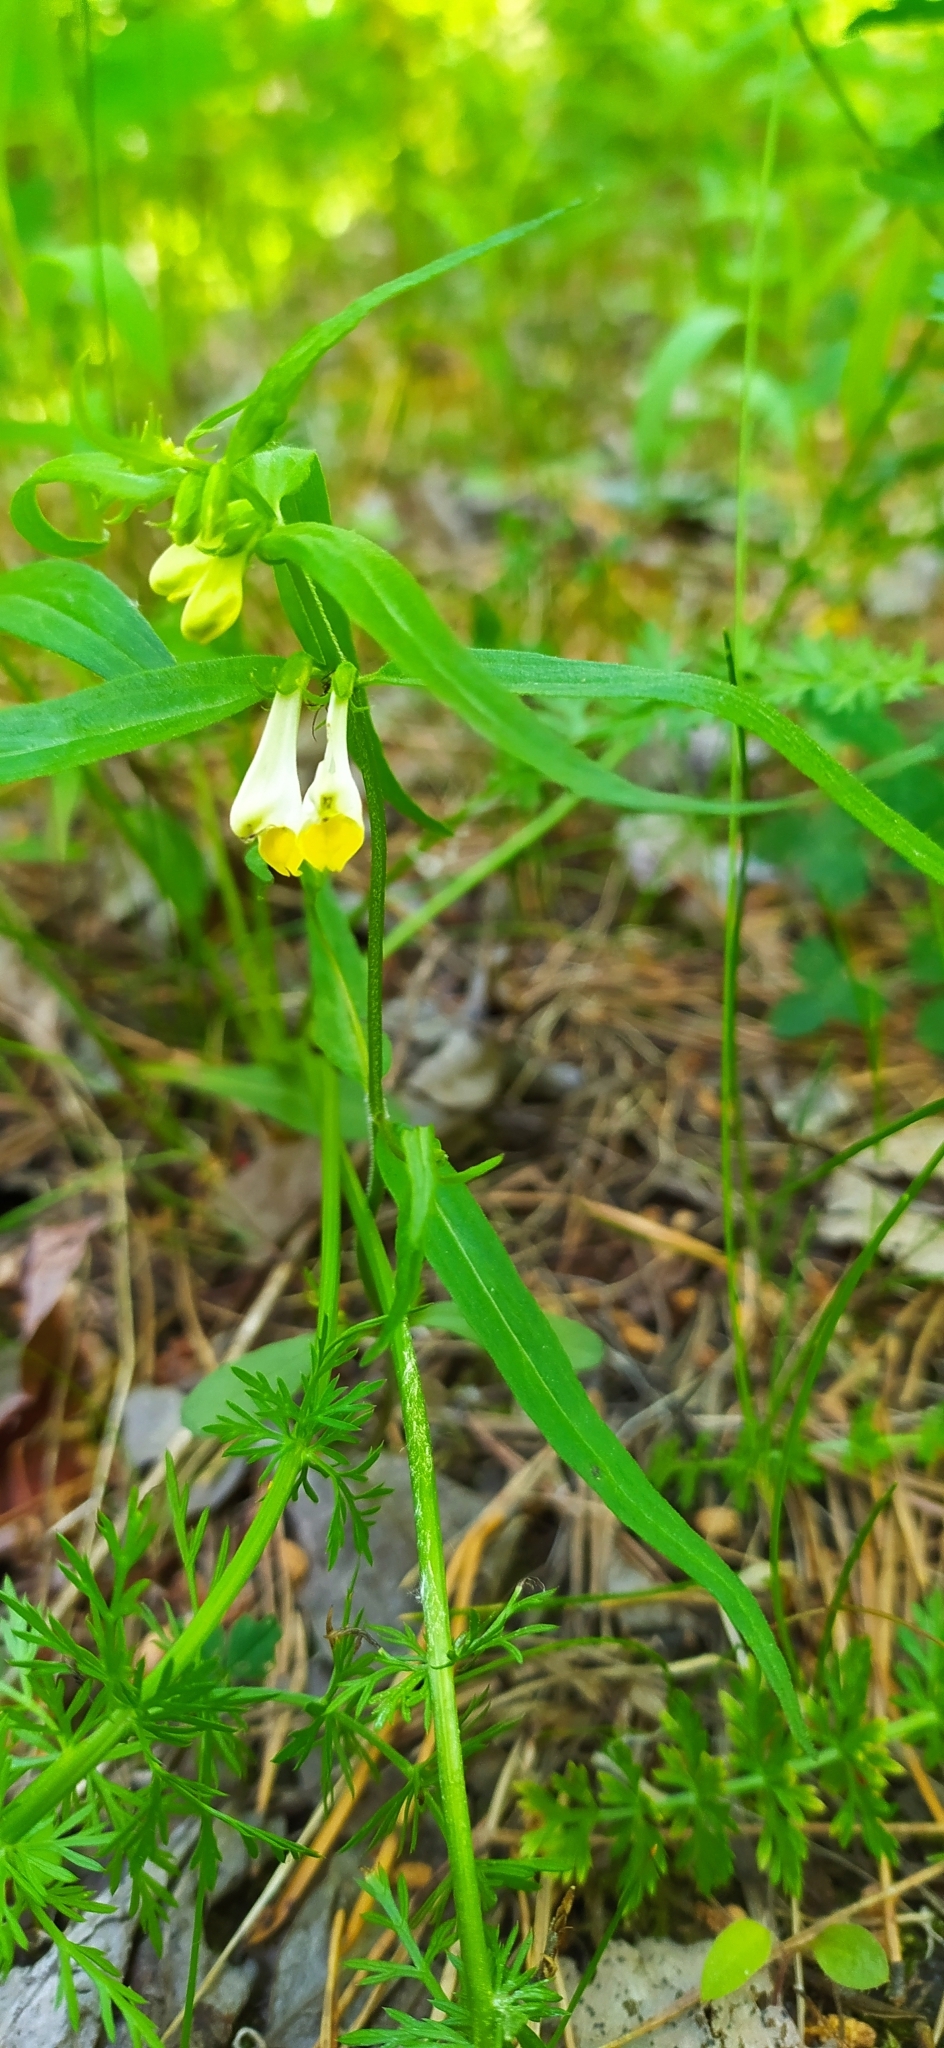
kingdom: Plantae
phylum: Tracheophyta
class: Magnoliopsida
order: Lamiales
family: Orobanchaceae
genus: Melampyrum
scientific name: Melampyrum pratense
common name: Common cow-wheat
